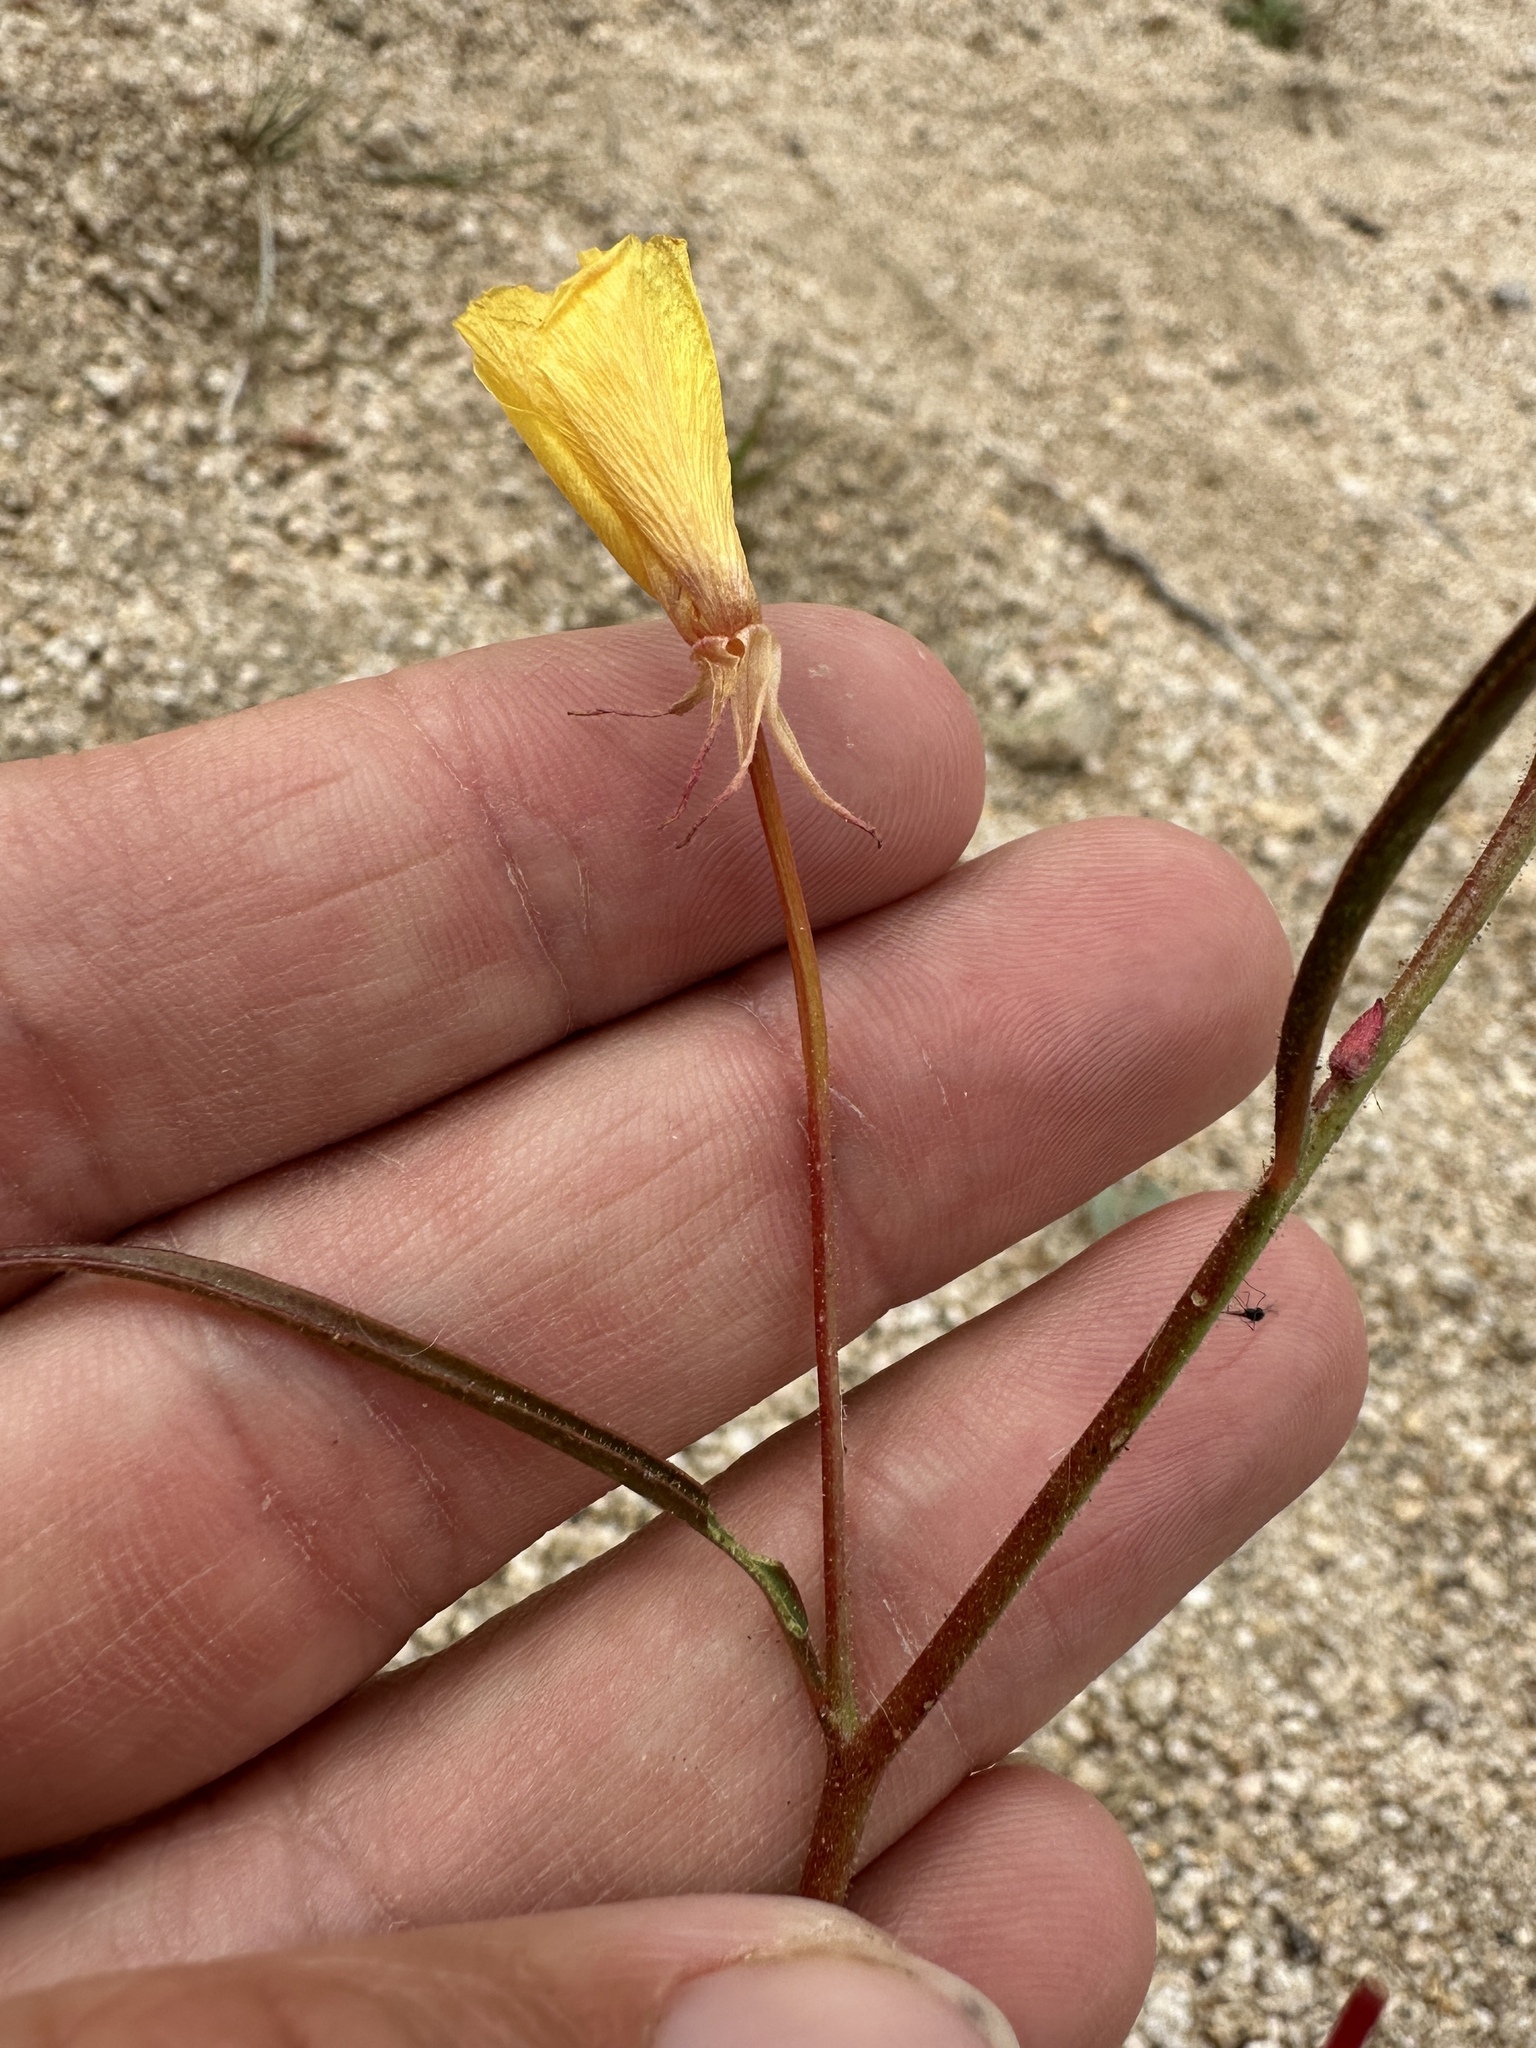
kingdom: Plantae
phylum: Tracheophyta
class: Magnoliopsida
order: Myrtales
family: Onagraceae
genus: Camissonia
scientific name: Camissonia campestris
